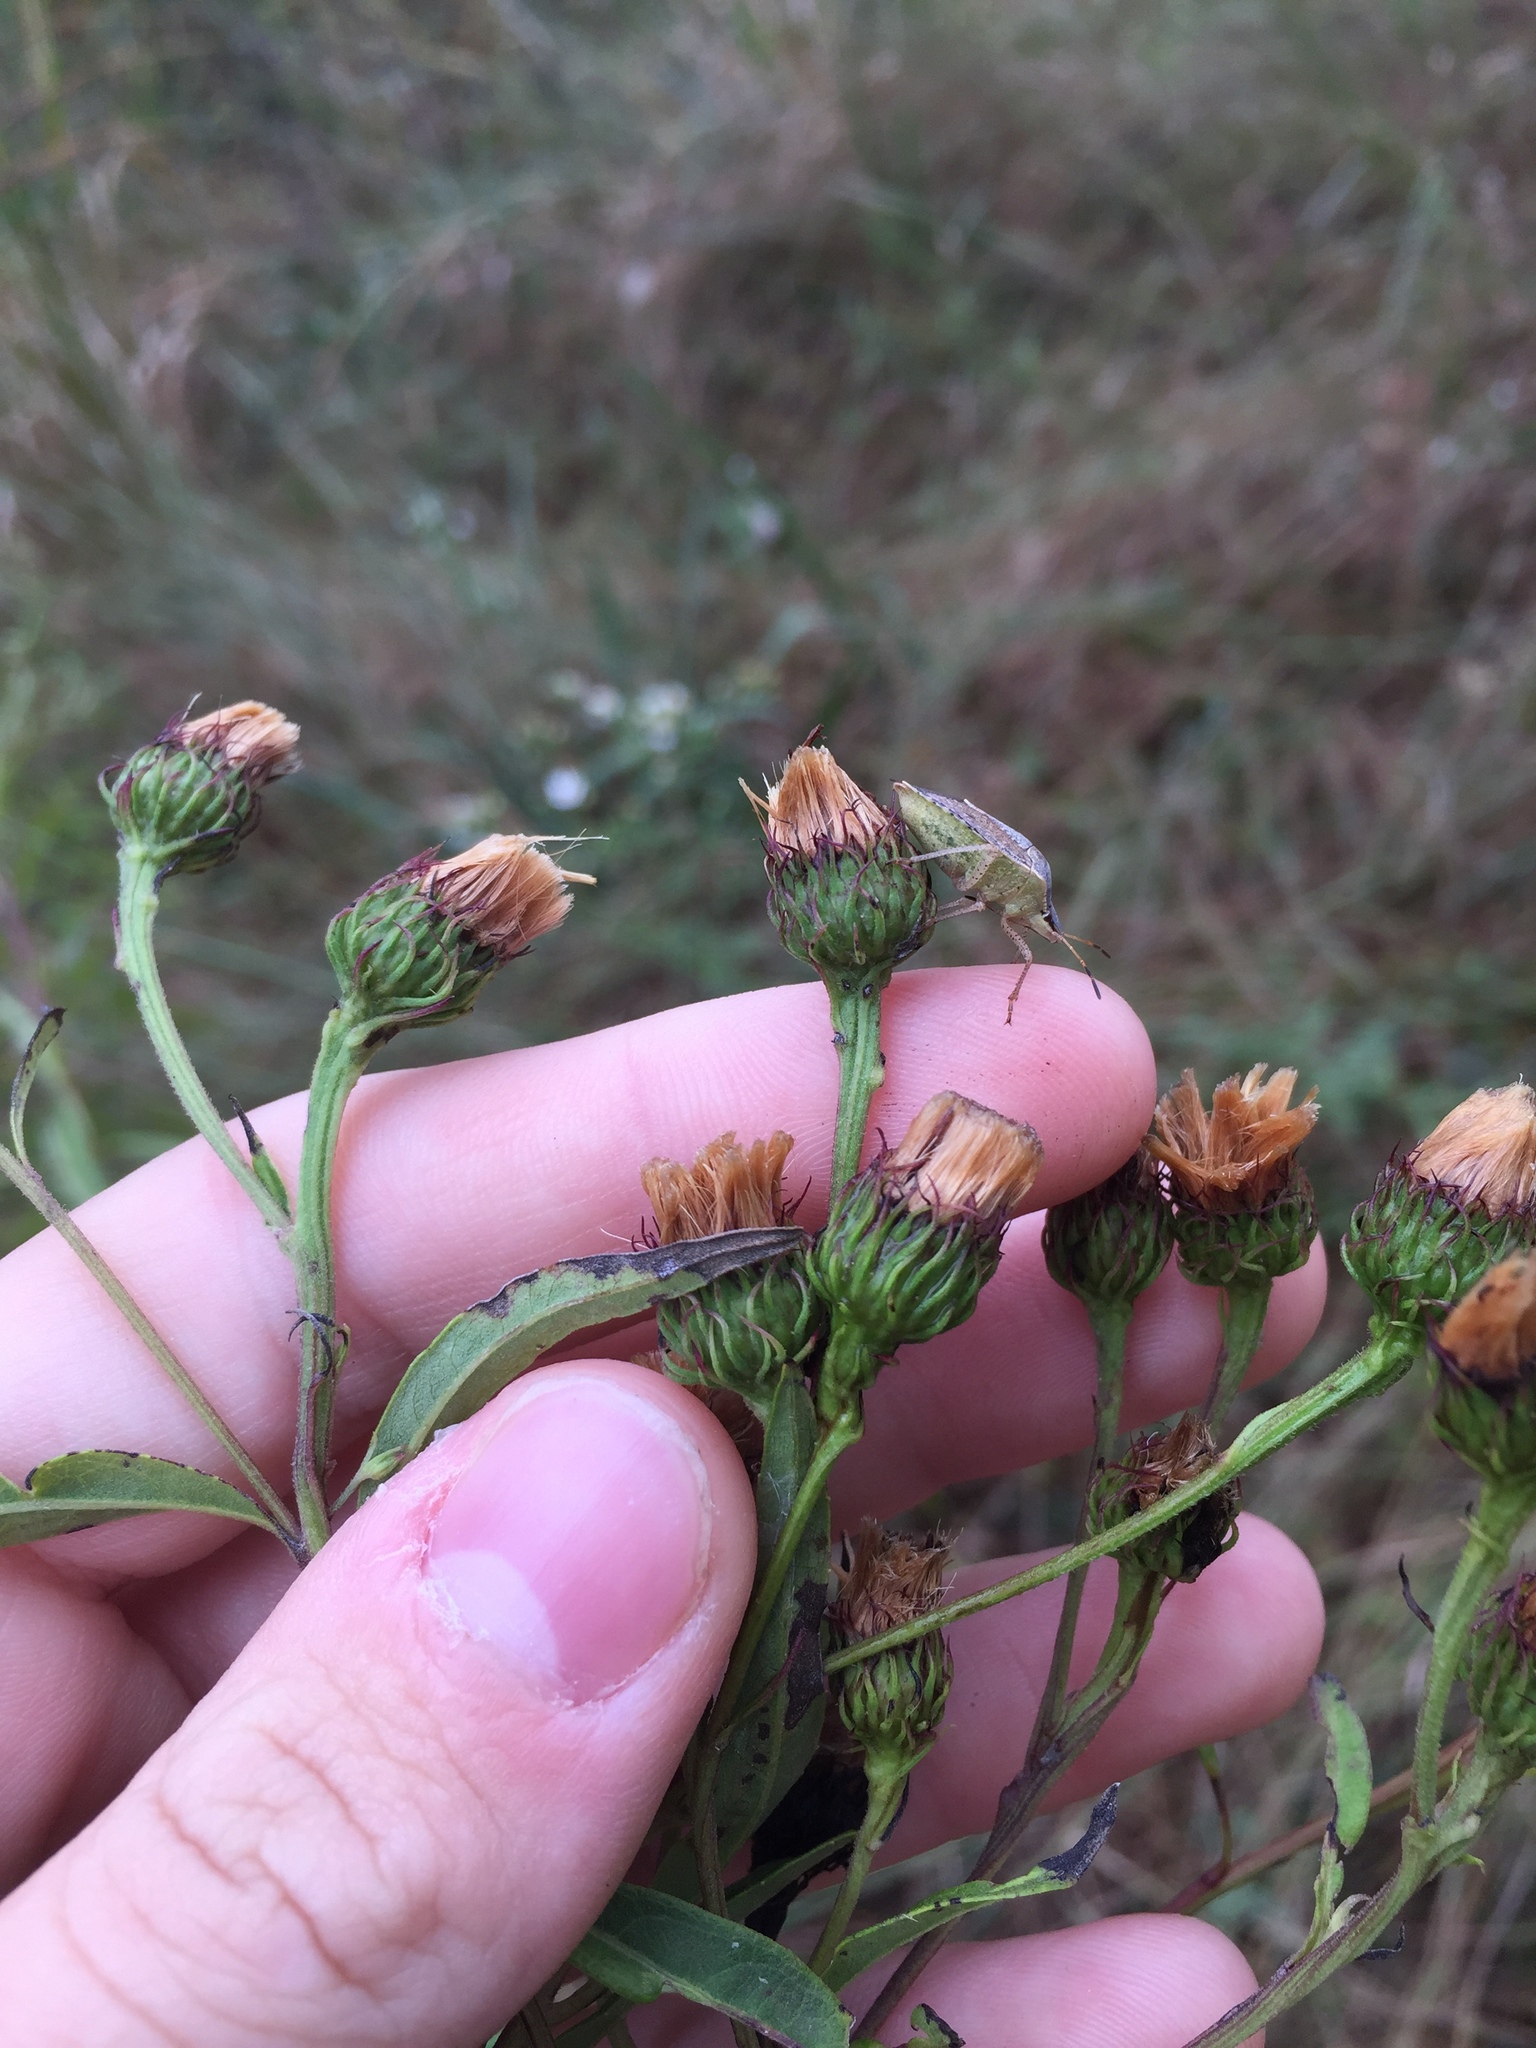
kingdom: Plantae
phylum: Tracheophyta
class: Magnoliopsida
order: Asterales
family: Asteraceae
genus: Vernonia
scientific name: Vernonia arkansana
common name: Ozark ironweed
